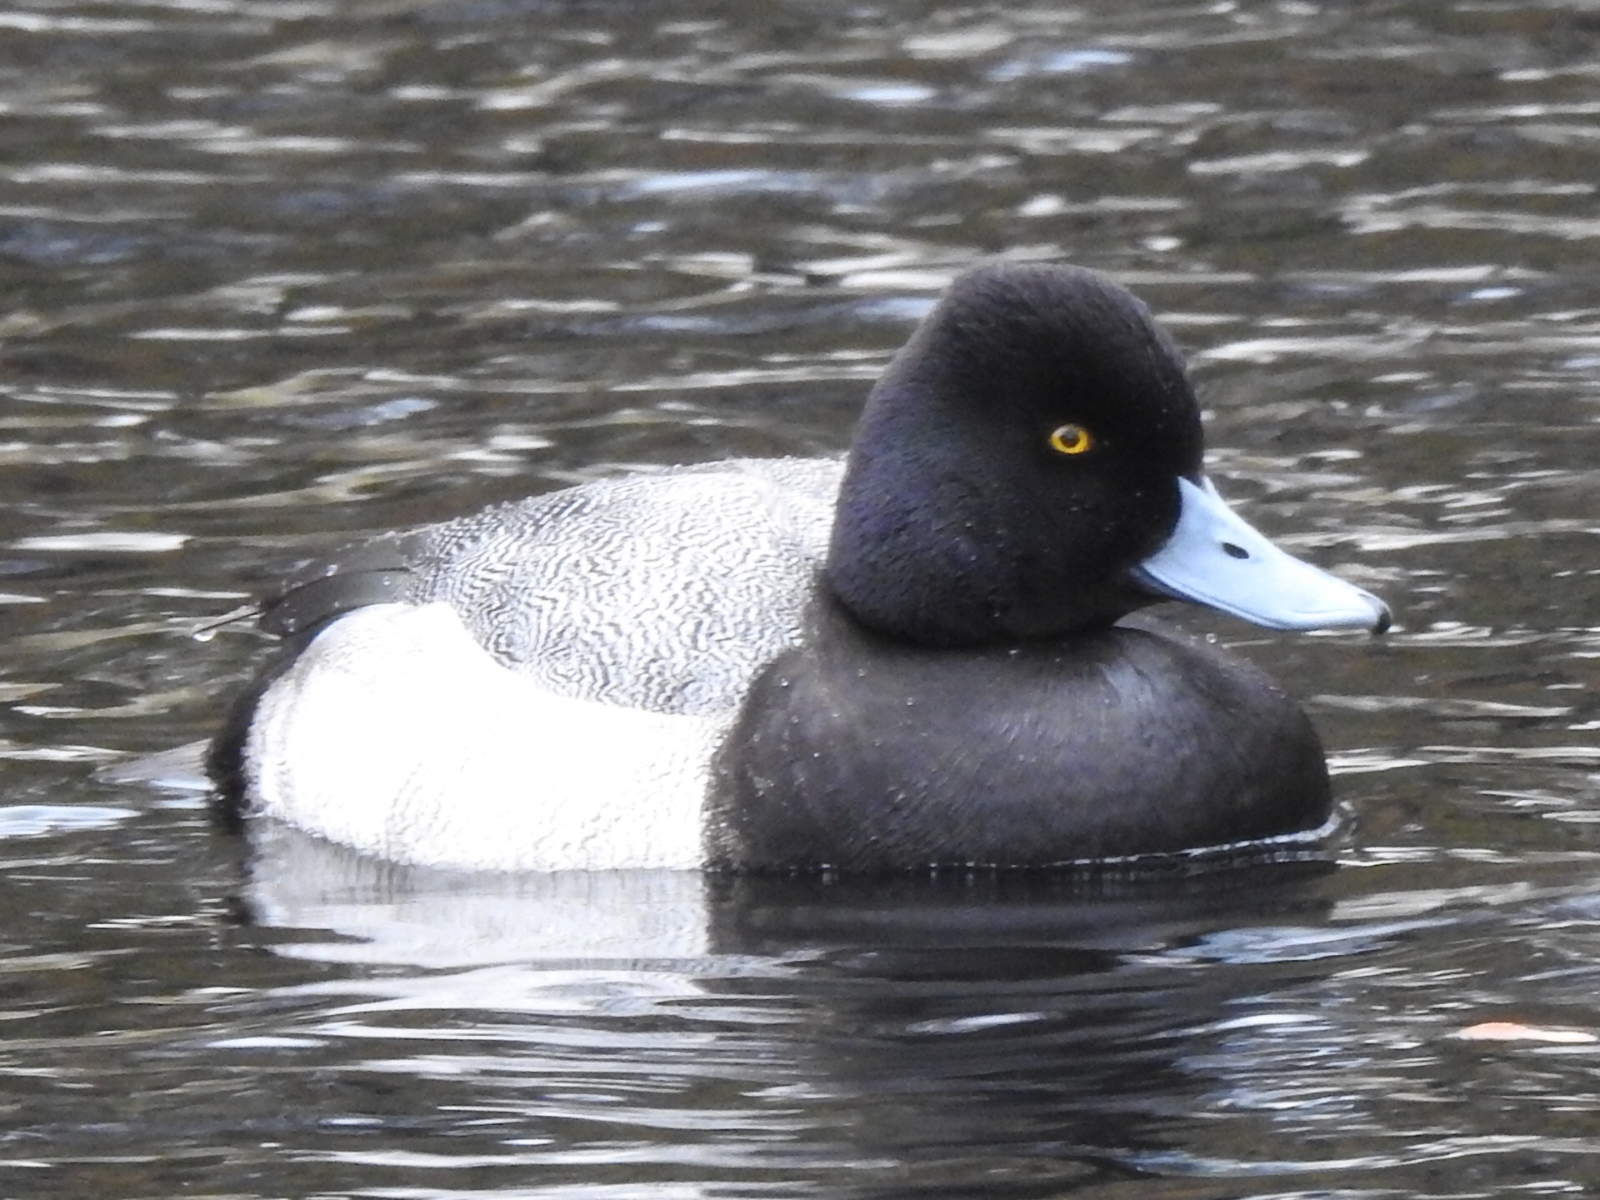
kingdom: Animalia
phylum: Chordata
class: Aves
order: Anseriformes
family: Anatidae
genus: Aythya
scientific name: Aythya affinis
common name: Lesser scaup
